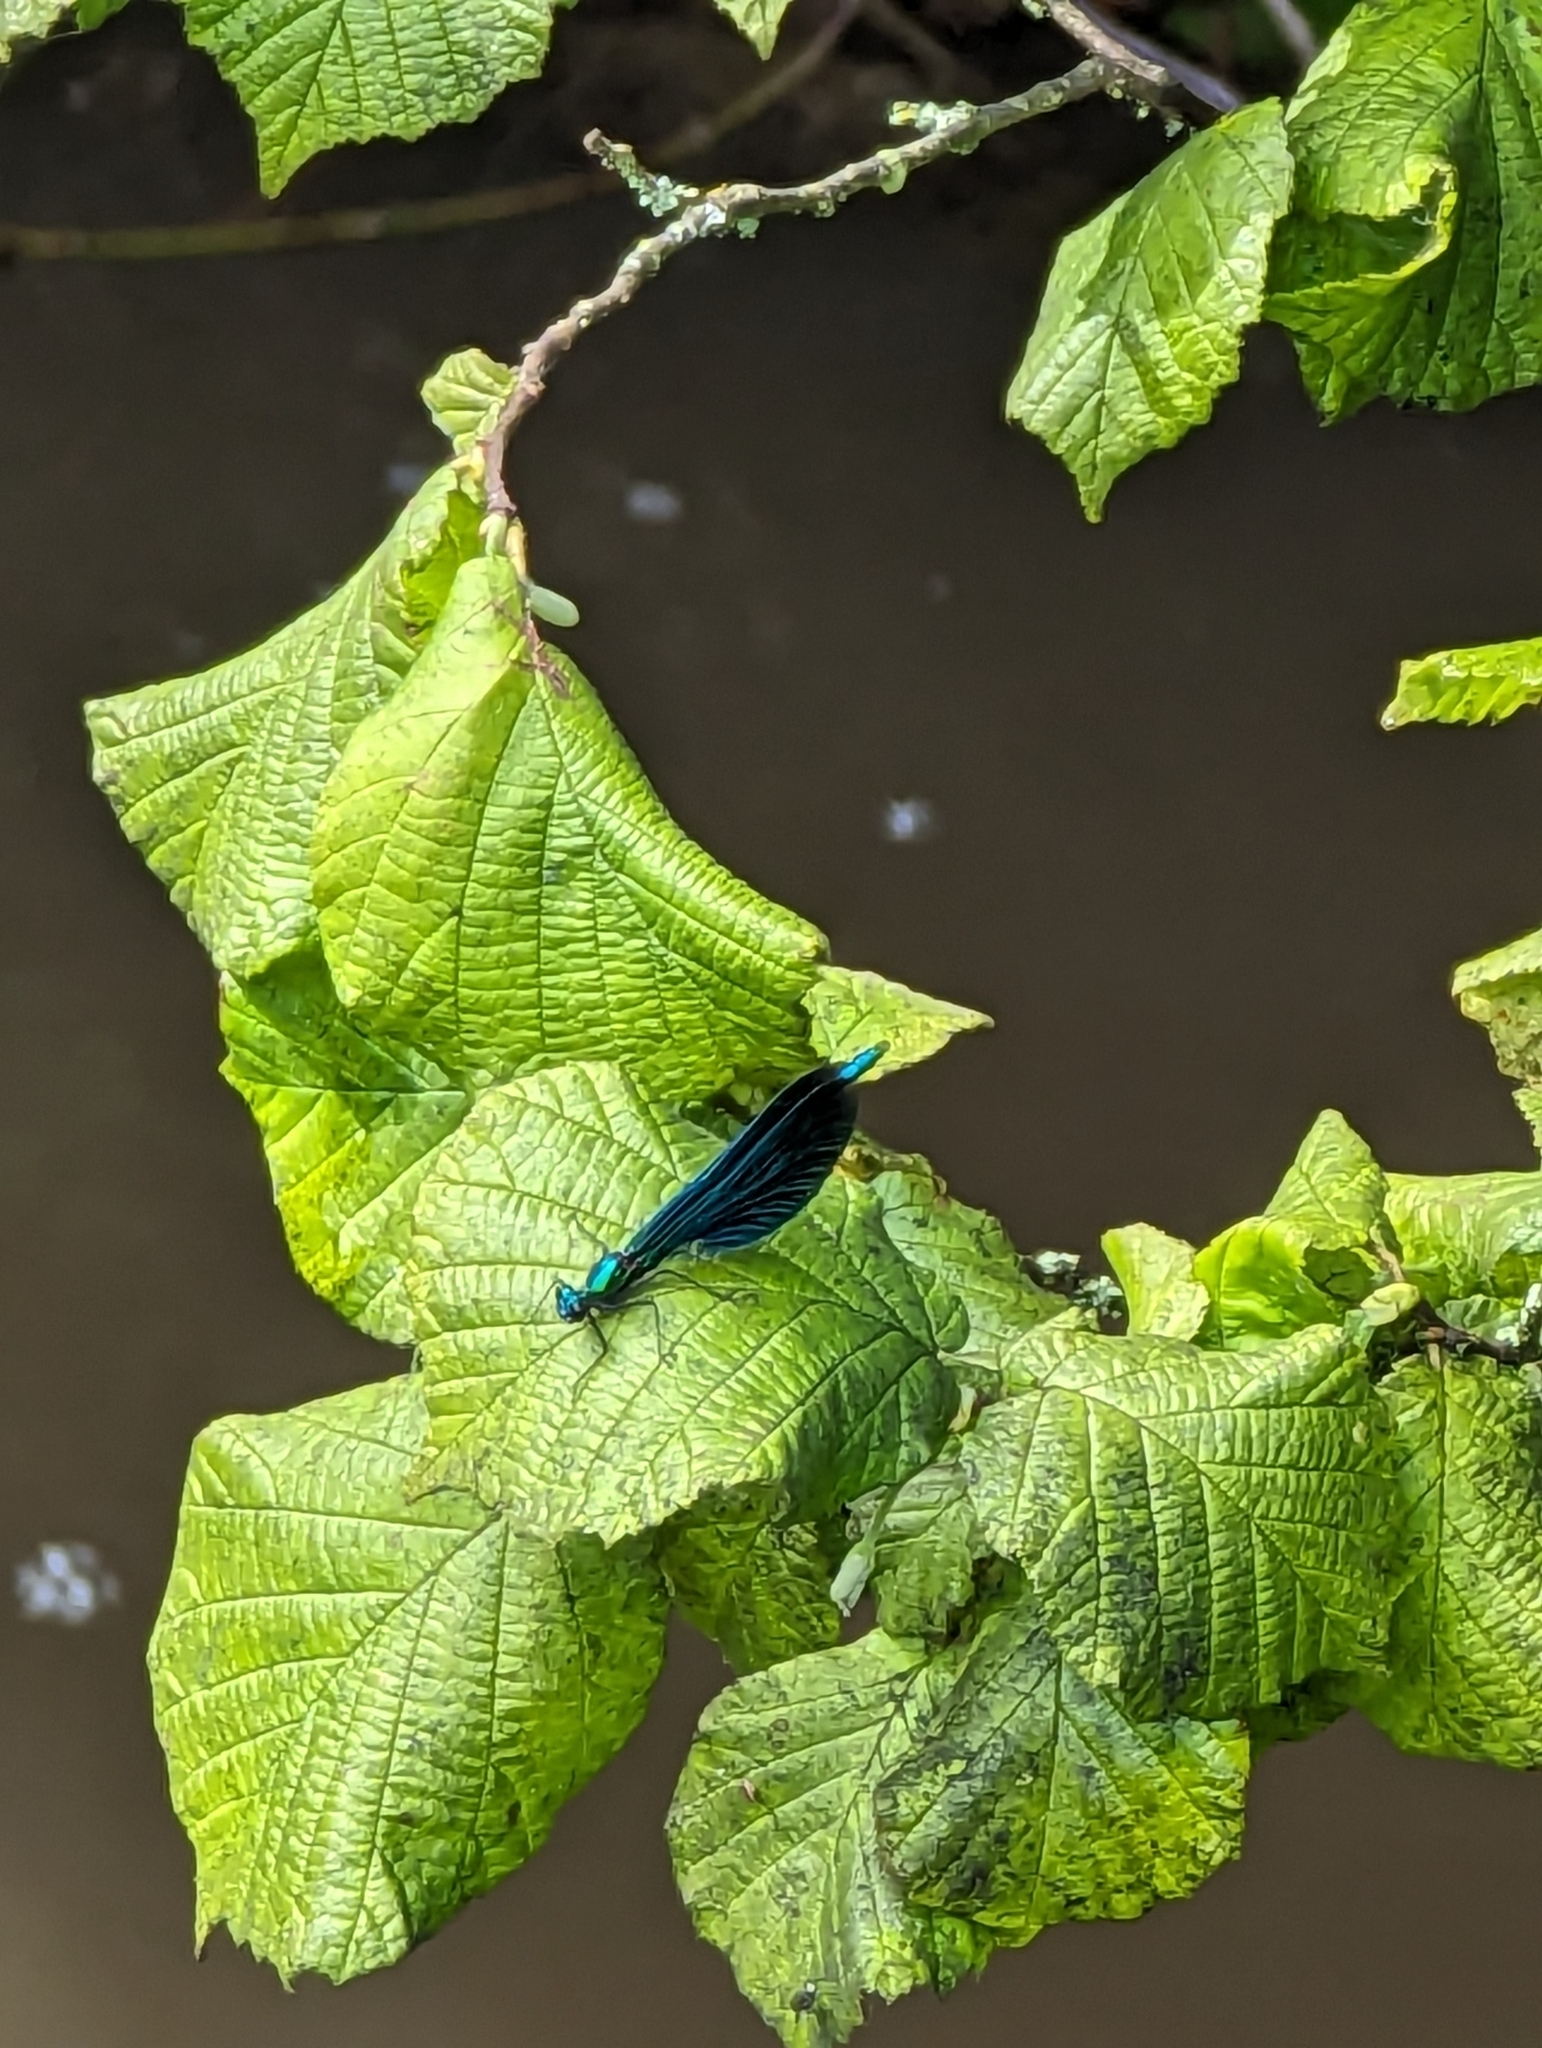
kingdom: Animalia
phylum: Arthropoda
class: Insecta
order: Odonata
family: Calopterygidae
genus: Calopteryx
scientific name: Calopteryx virgo
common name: Beautiful demoiselle
